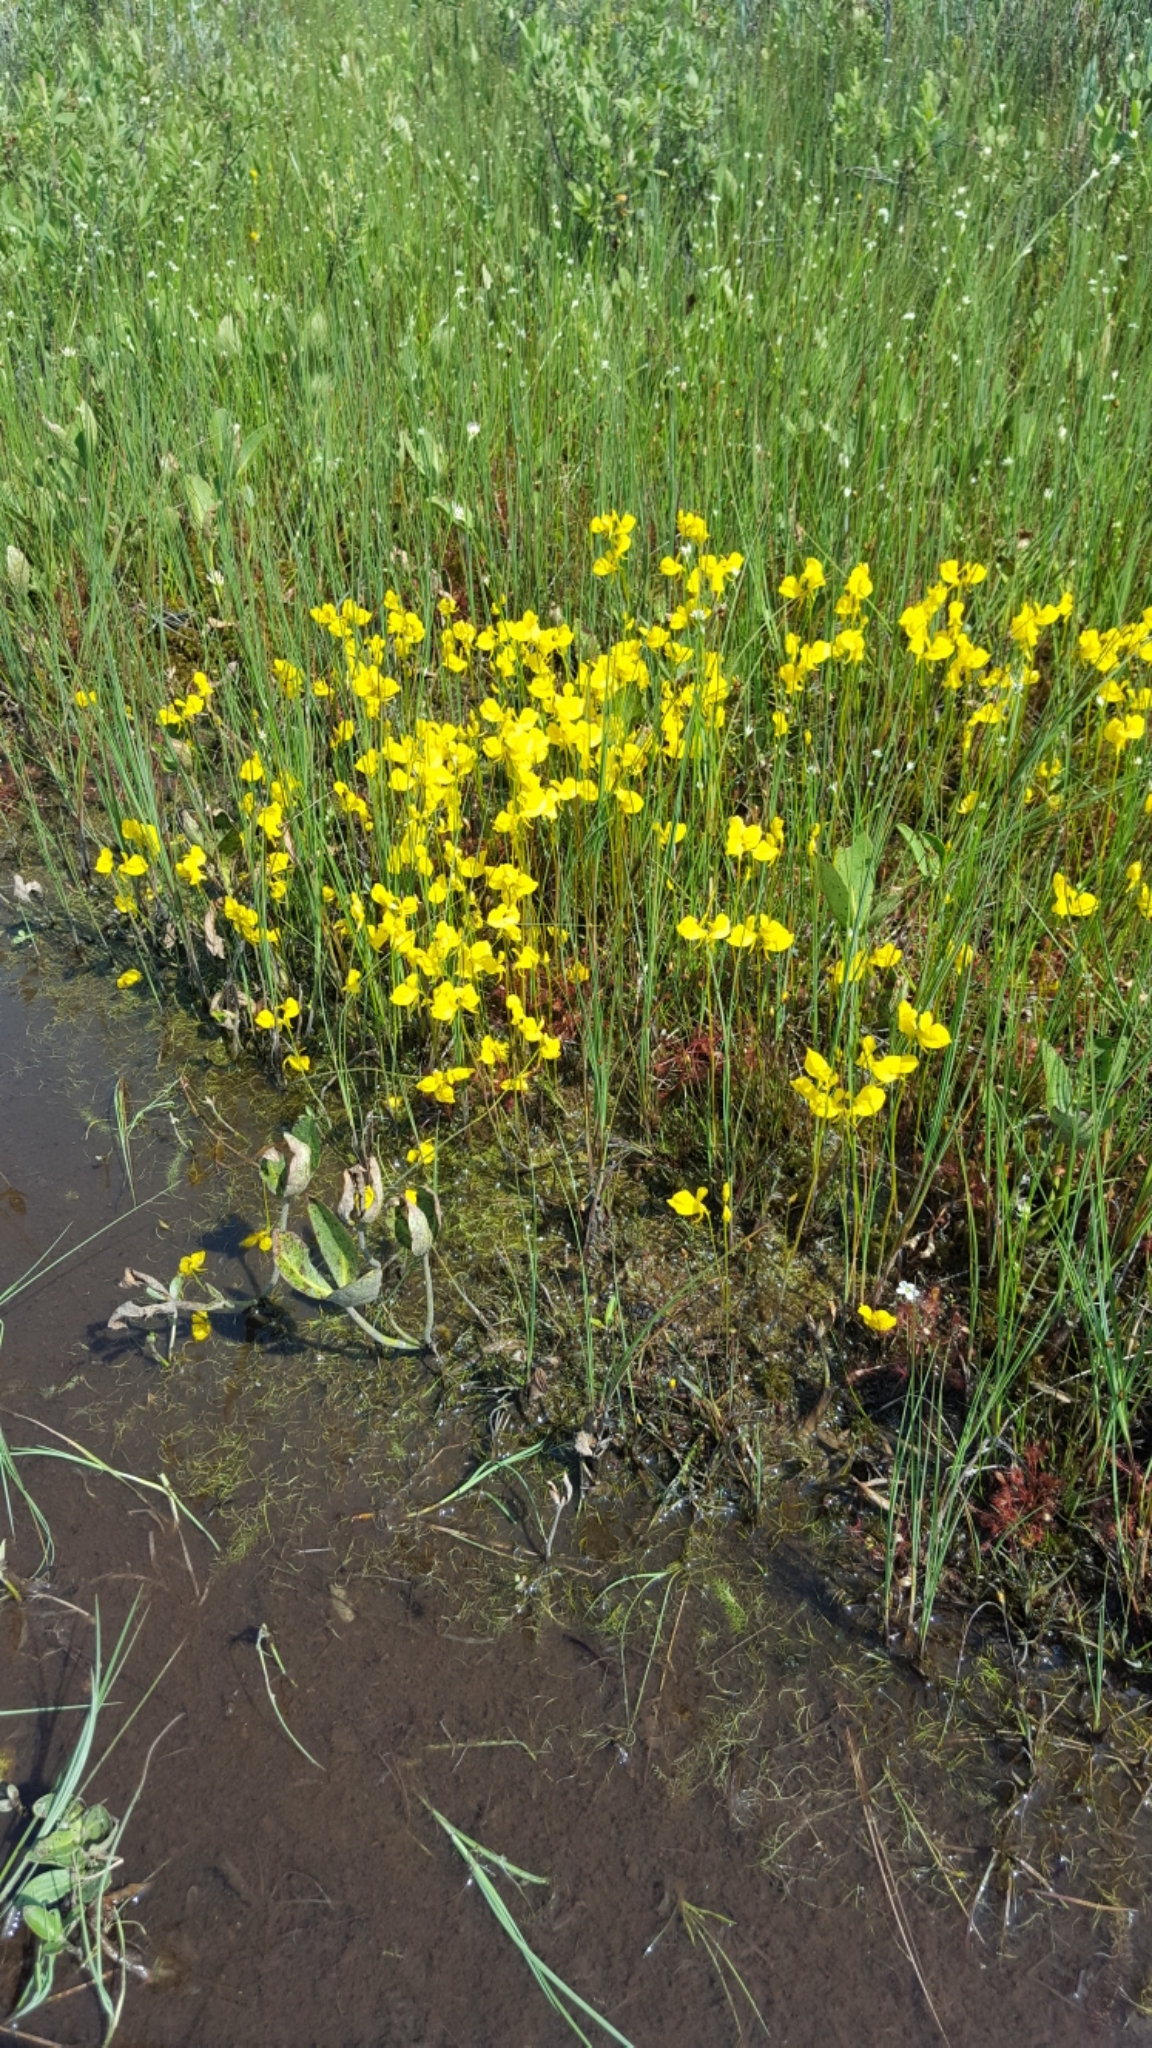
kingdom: Plantae
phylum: Tracheophyta
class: Magnoliopsida
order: Lamiales
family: Lentibulariaceae
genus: Utricularia
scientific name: Utricularia cornuta
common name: Horned bladderwort
